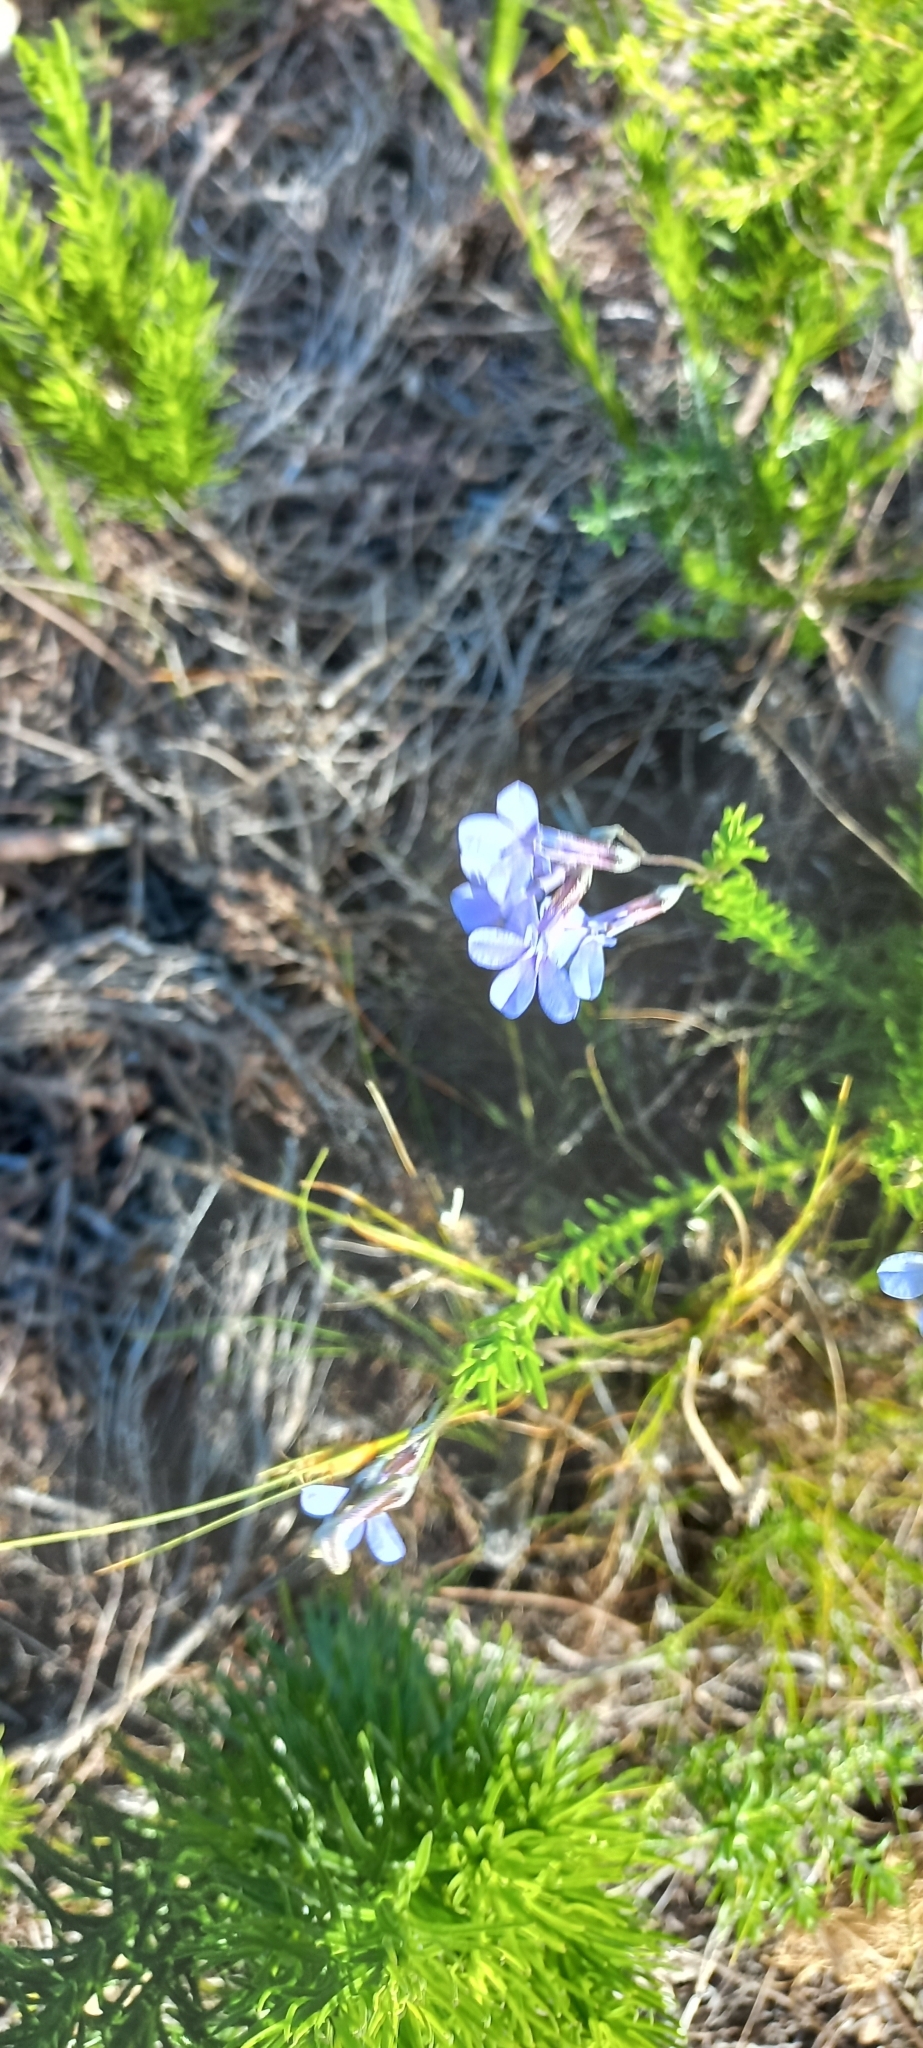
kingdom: Plantae
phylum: Tracheophyta
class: Magnoliopsida
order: Asterales
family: Campanulaceae
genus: Lobelia
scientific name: Lobelia pinifolia
